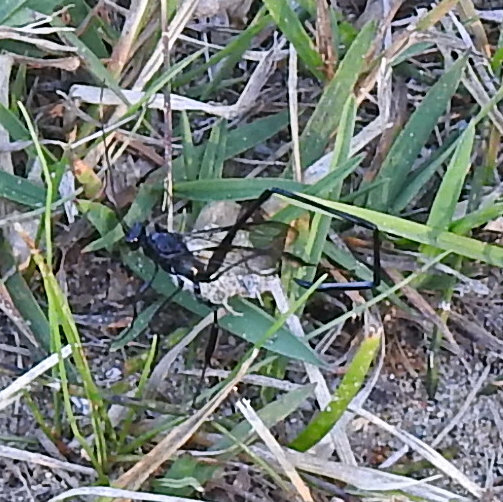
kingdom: Animalia
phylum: Arthropoda
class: Insecta
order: Hymenoptera
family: Pelecinidae
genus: Pelecinus
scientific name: Pelecinus polyturator
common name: American pelecinid wasp
